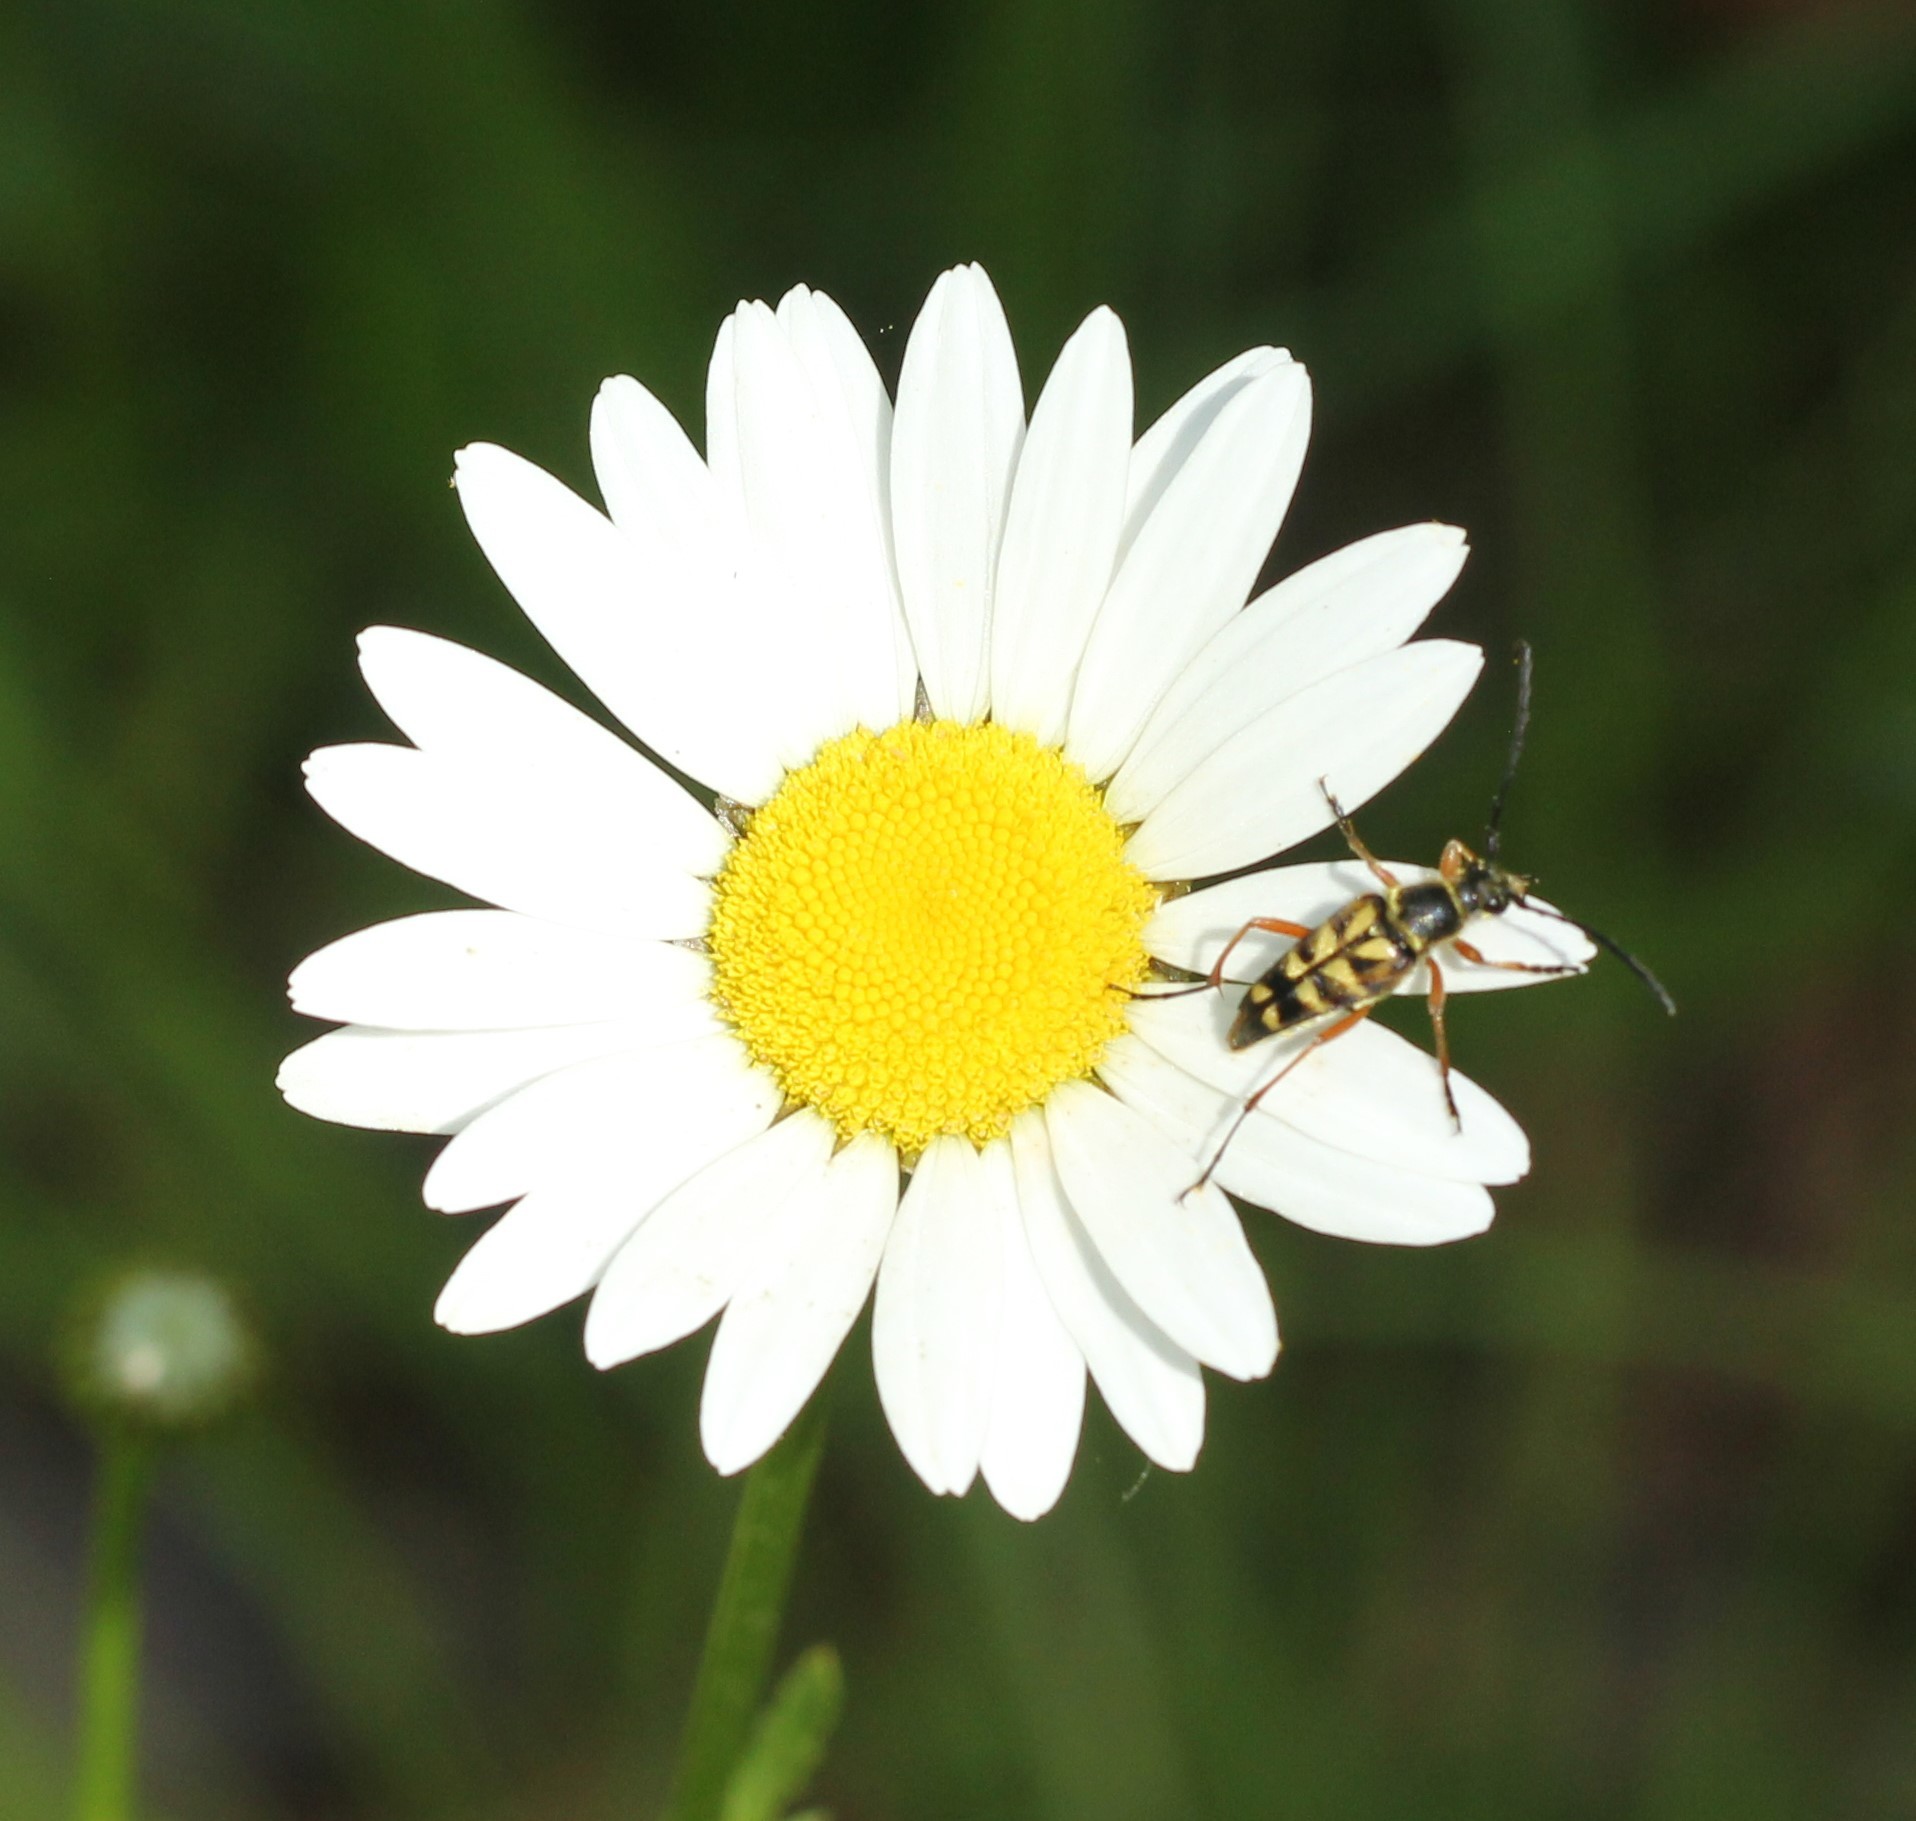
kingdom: Animalia
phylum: Arthropoda
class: Insecta
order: Coleoptera
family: Cerambycidae
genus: Typocerus
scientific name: Typocerus zebra
